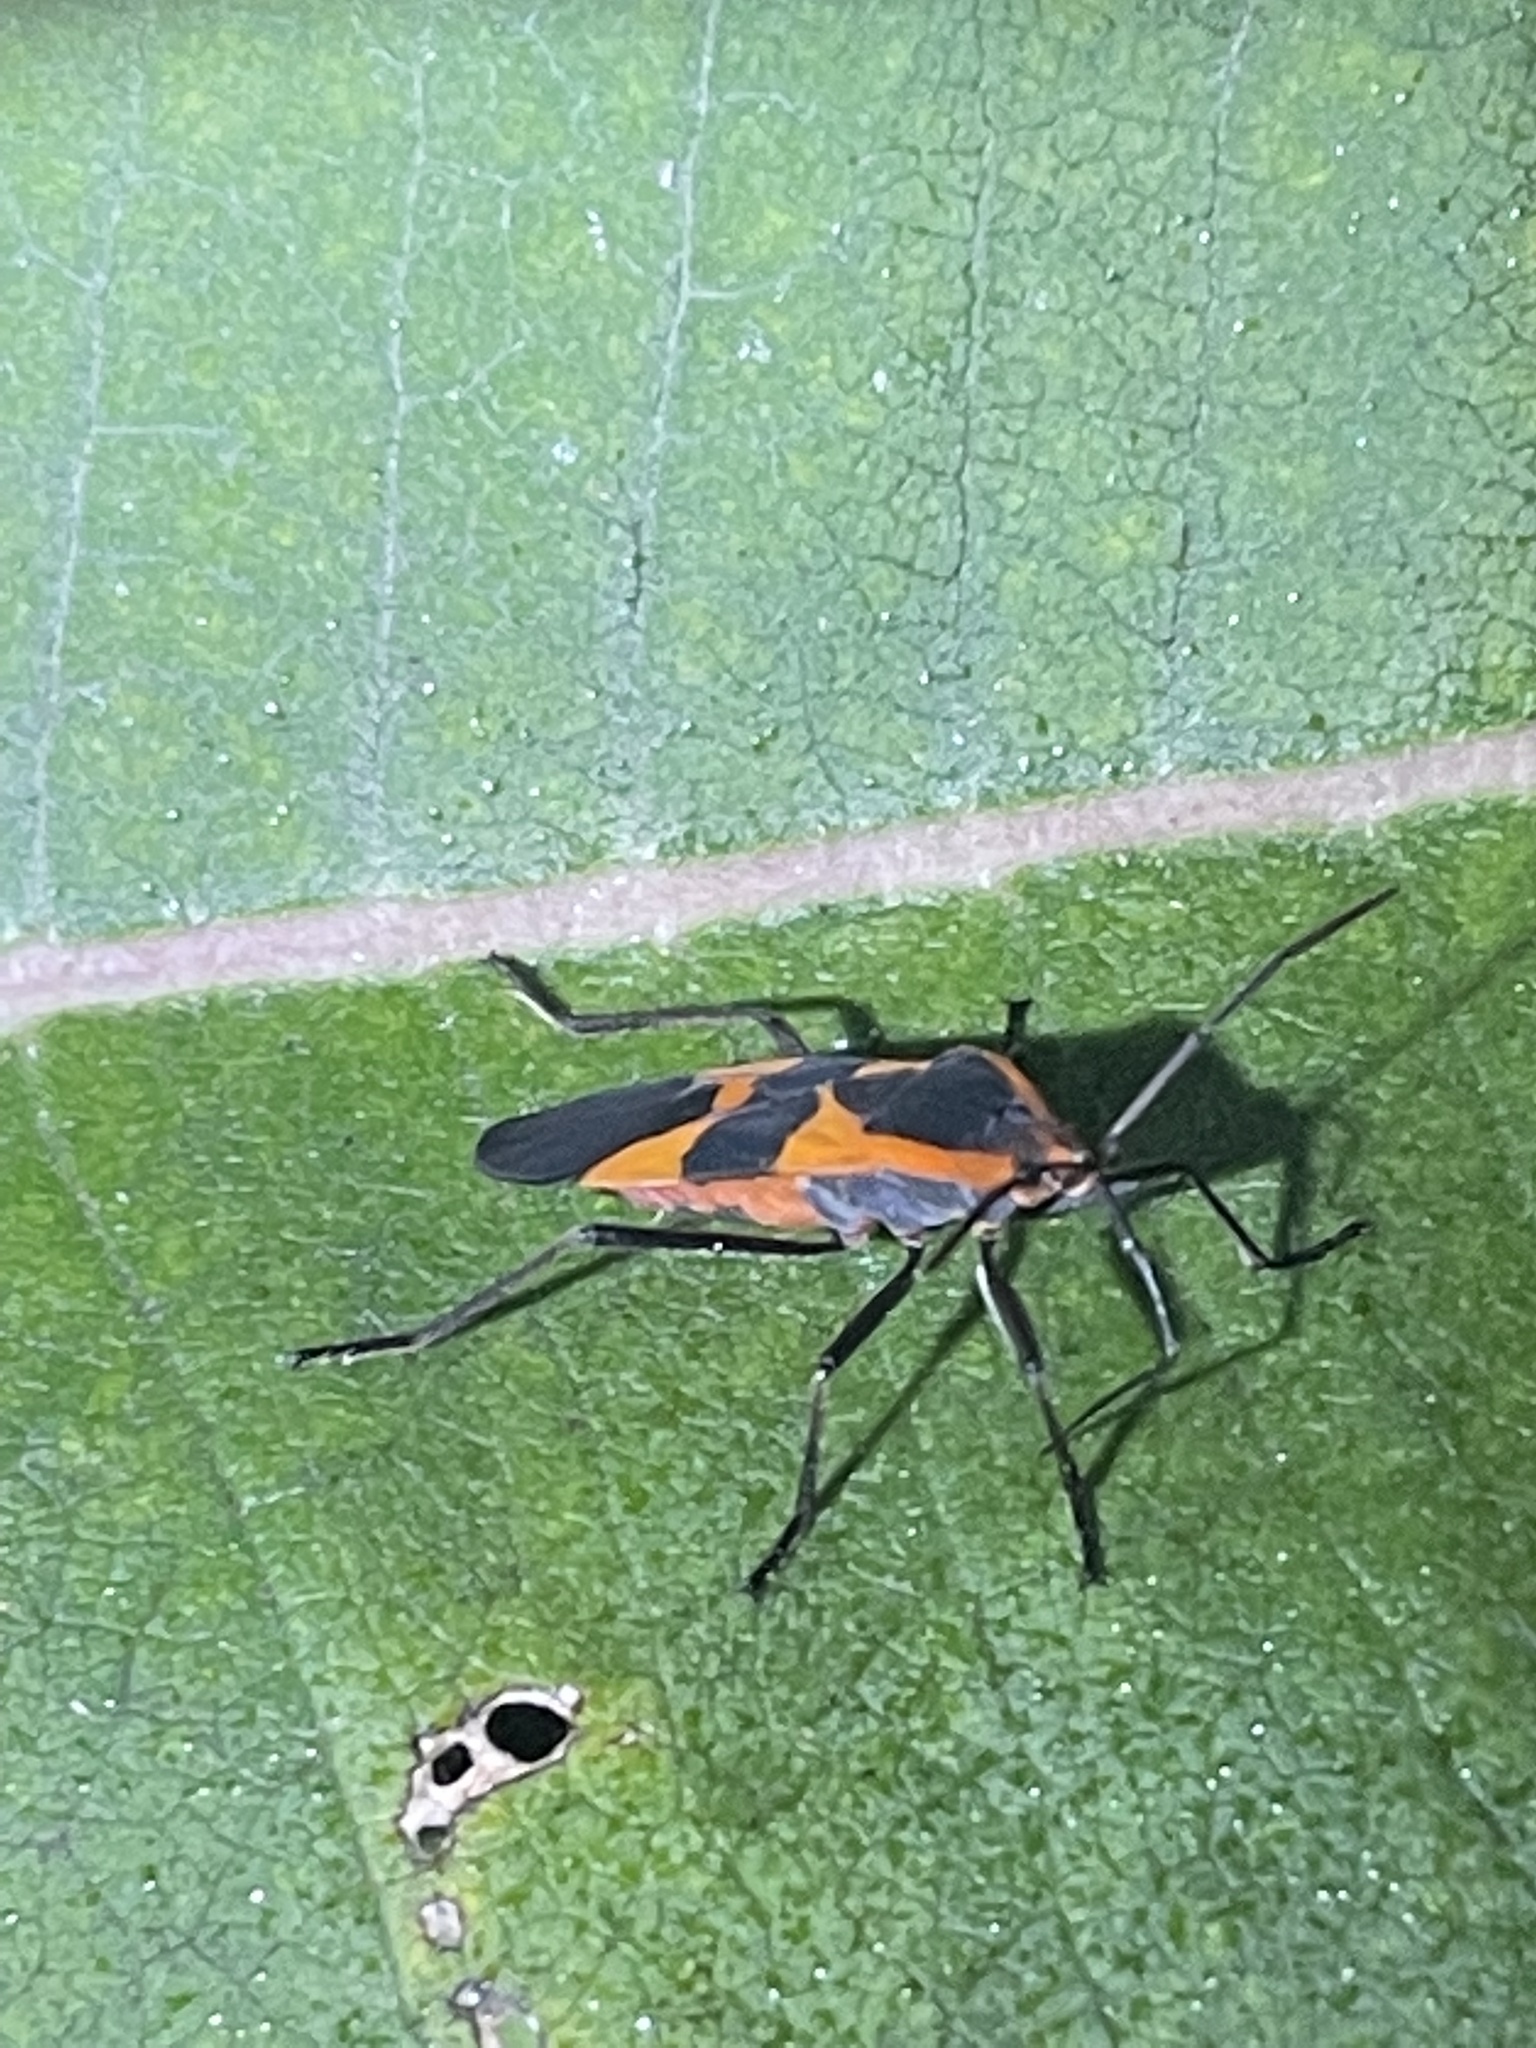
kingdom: Animalia
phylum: Arthropoda
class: Insecta
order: Hemiptera
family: Lygaeidae
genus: Oncopeltus
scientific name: Oncopeltus fasciatus
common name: Large milkweed bug
